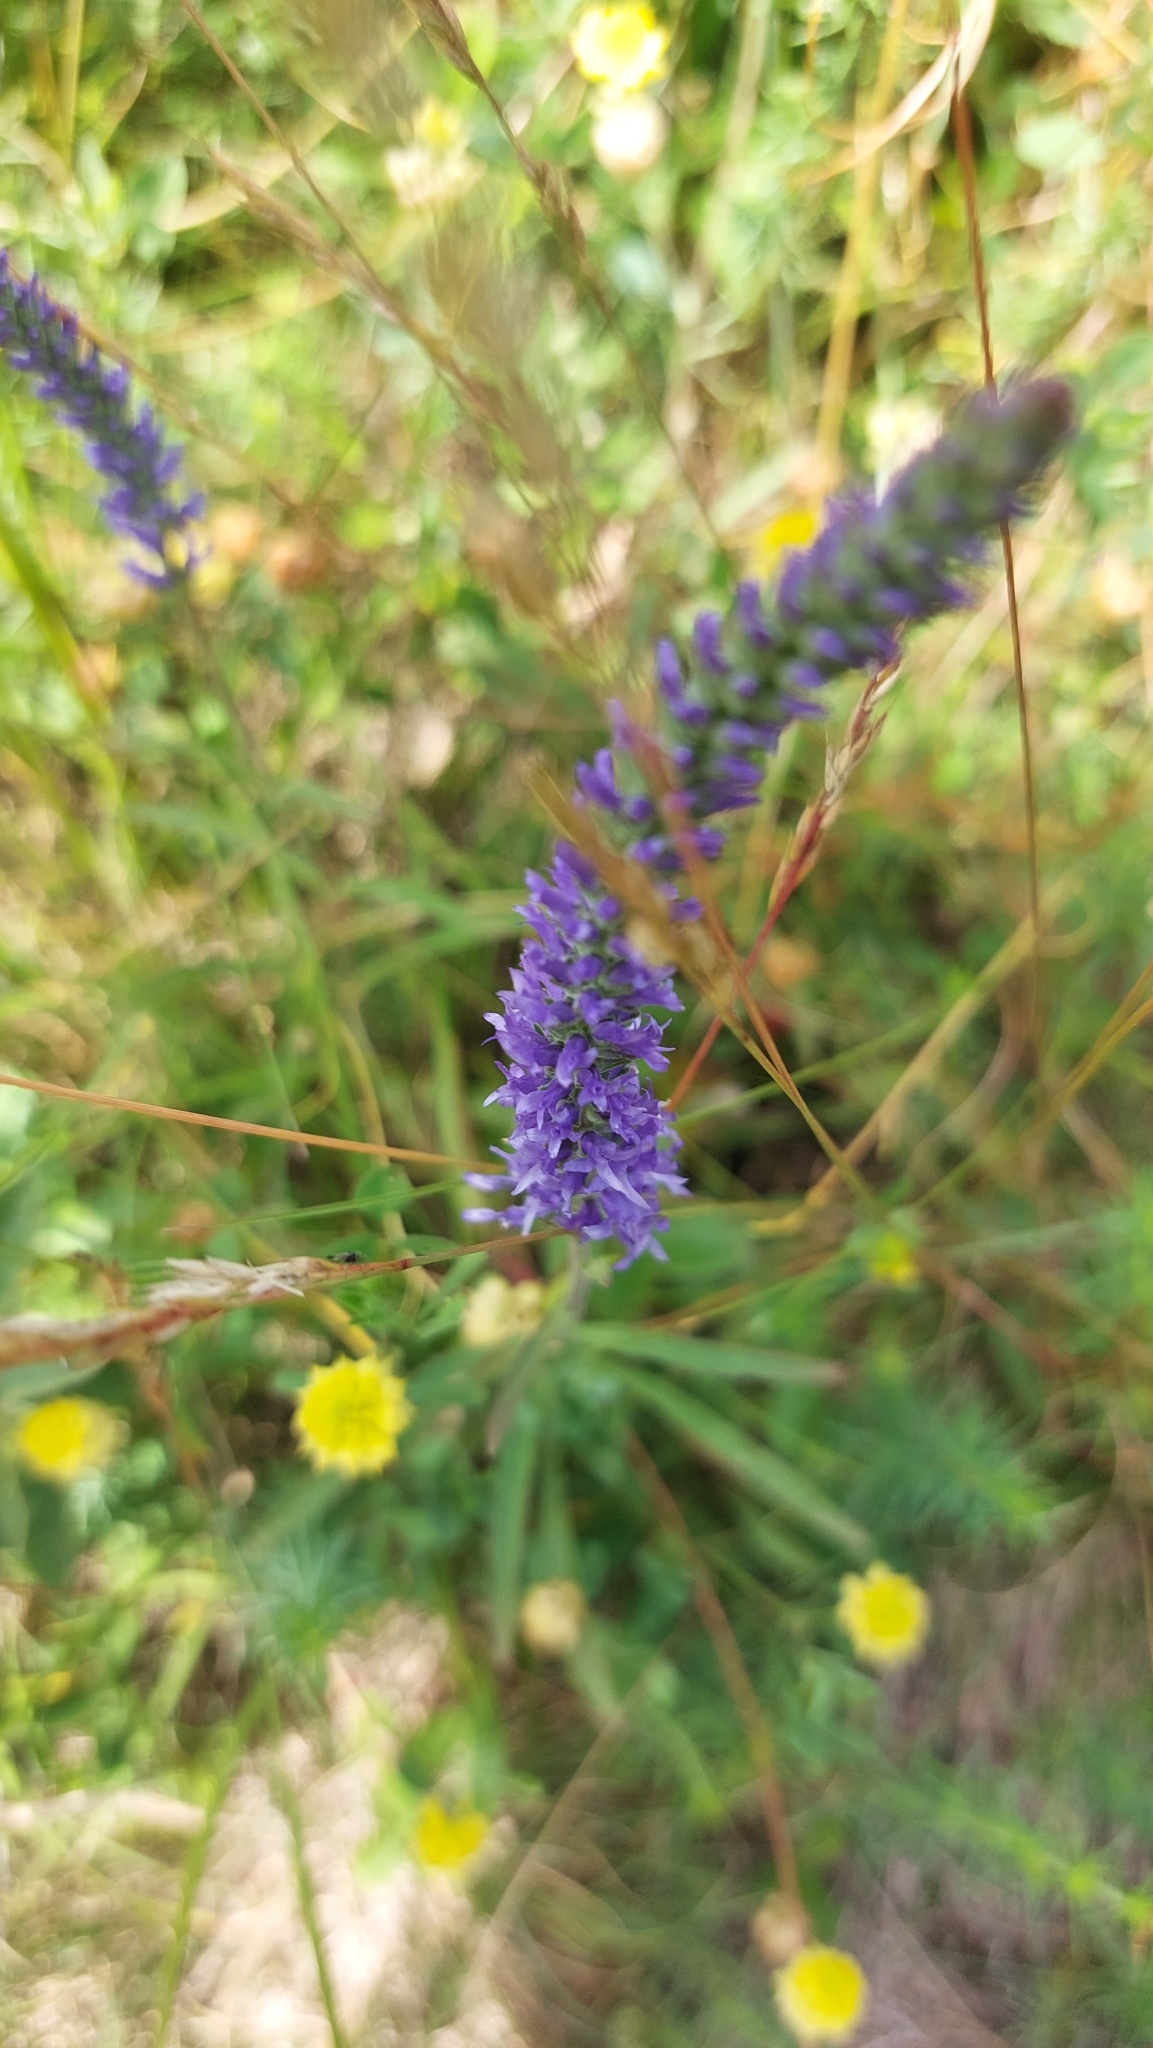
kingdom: Plantae
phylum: Tracheophyta
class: Magnoliopsida
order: Lamiales
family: Plantaginaceae
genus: Veronica
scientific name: Veronica spicata
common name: Spiked speedwell
